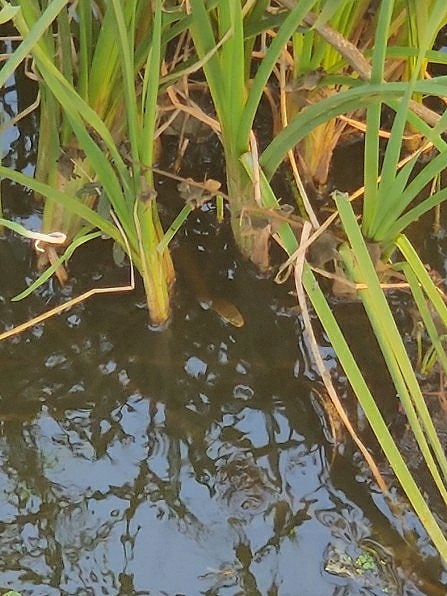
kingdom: Animalia
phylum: Chordata
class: Squamata
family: Colubridae
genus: Fowlea
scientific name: Fowlea piscator
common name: Asiatic water snake
